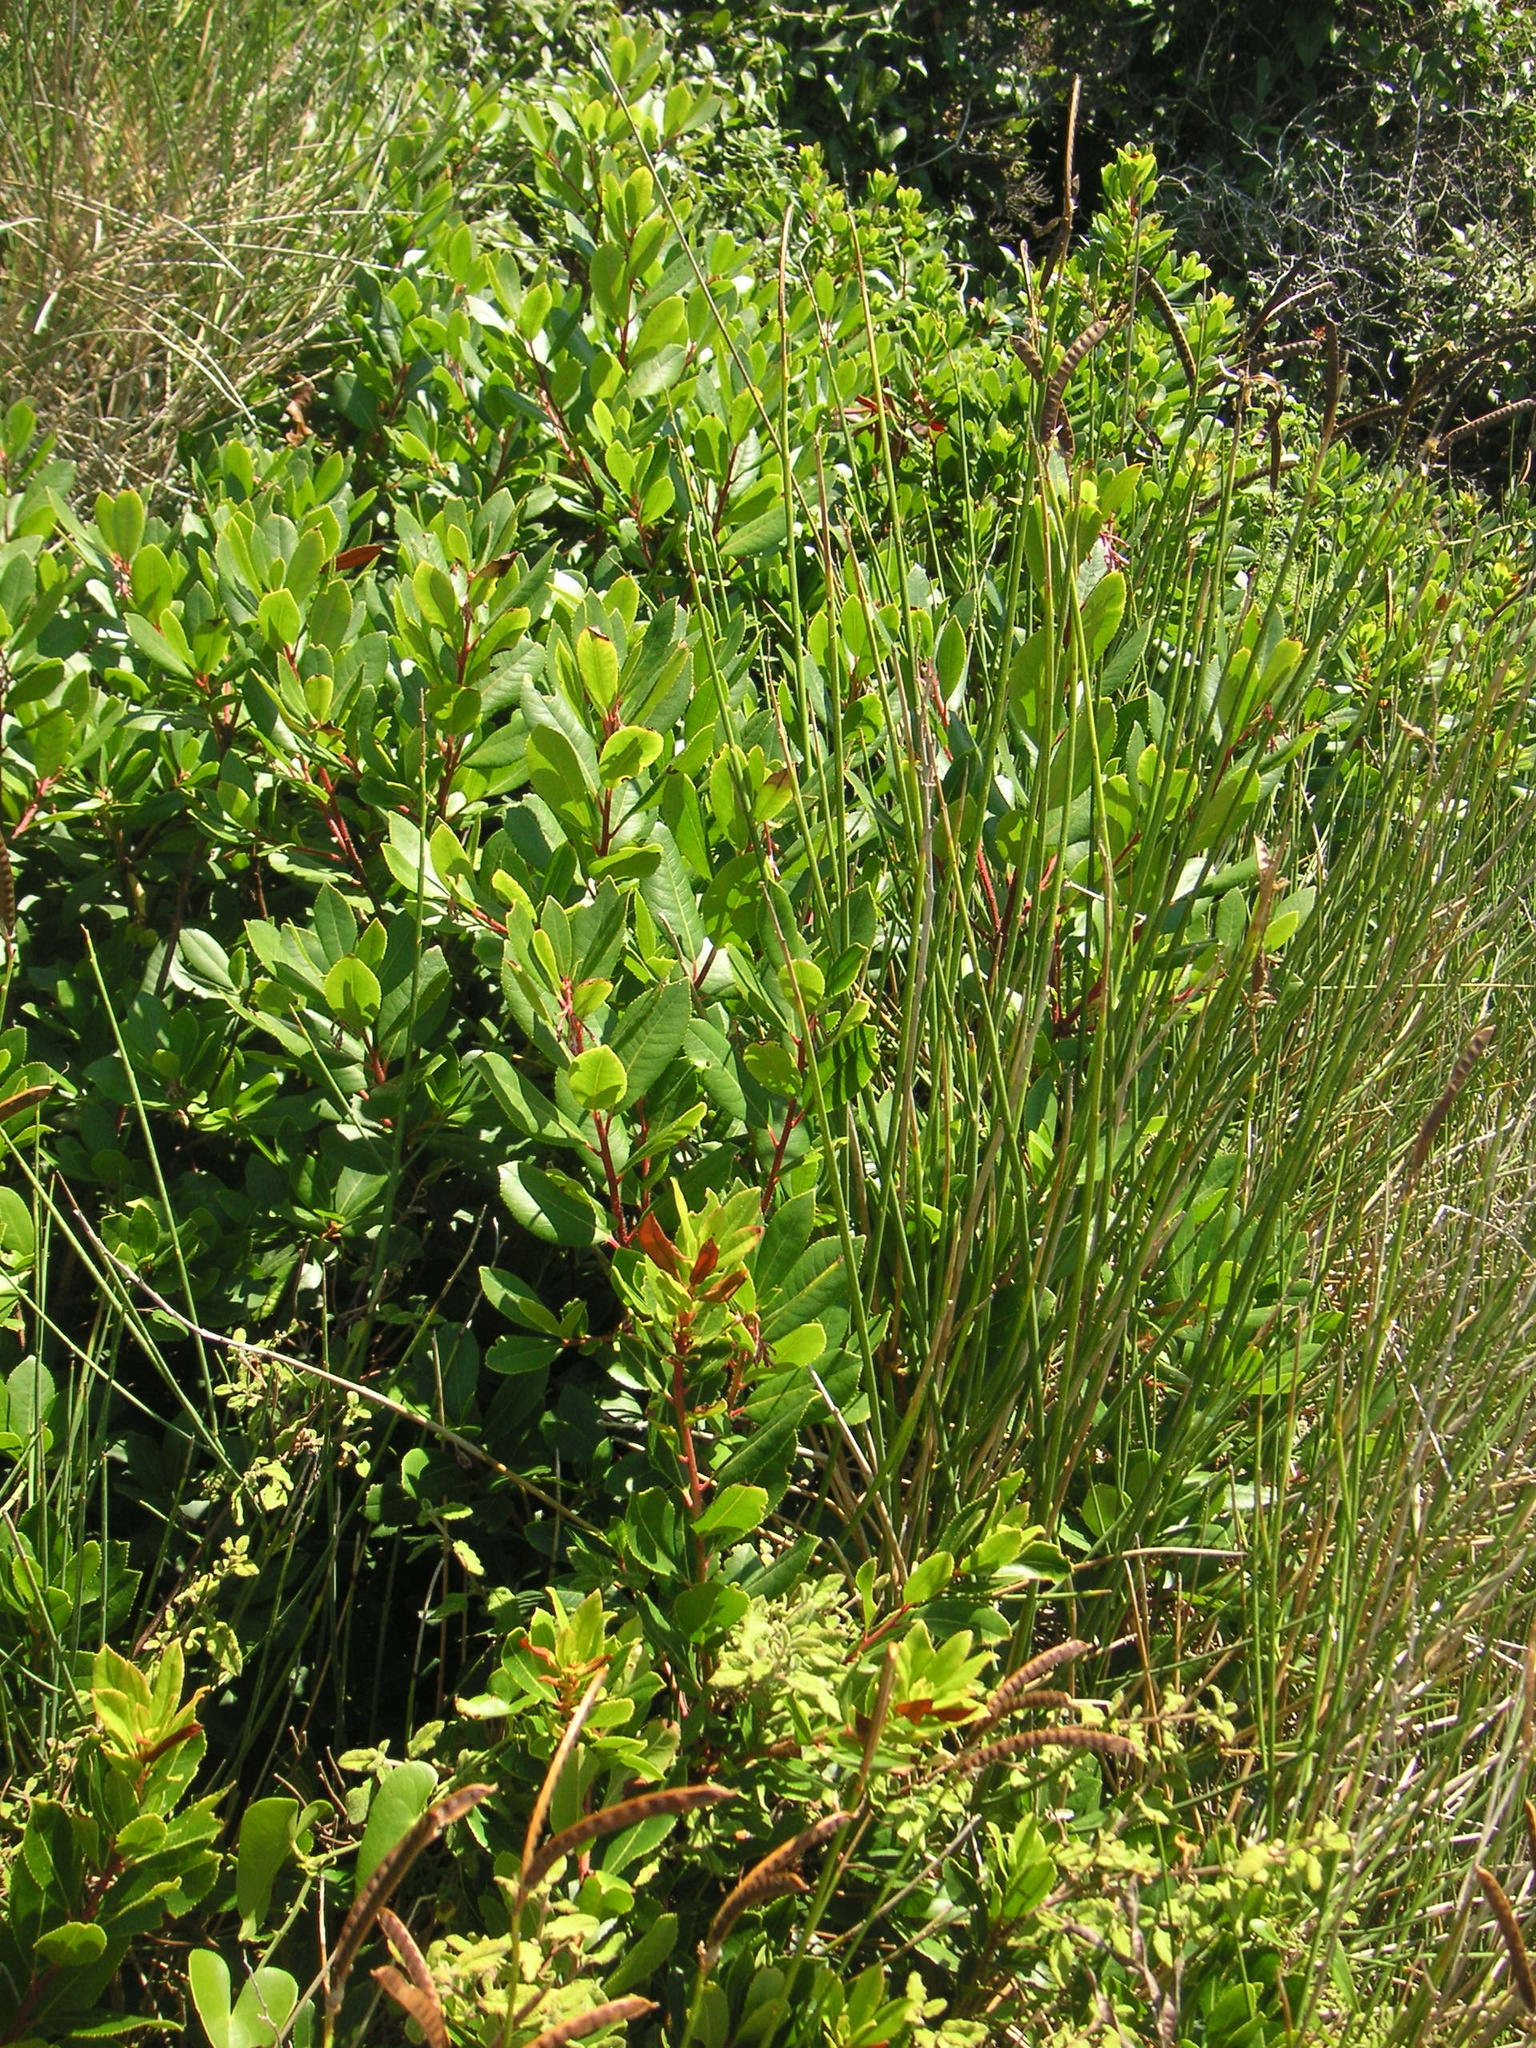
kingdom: Plantae
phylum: Tracheophyta
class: Magnoliopsida
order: Ericales
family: Ericaceae
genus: Arbutus
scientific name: Arbutus unedo
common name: Strawberry-tree
